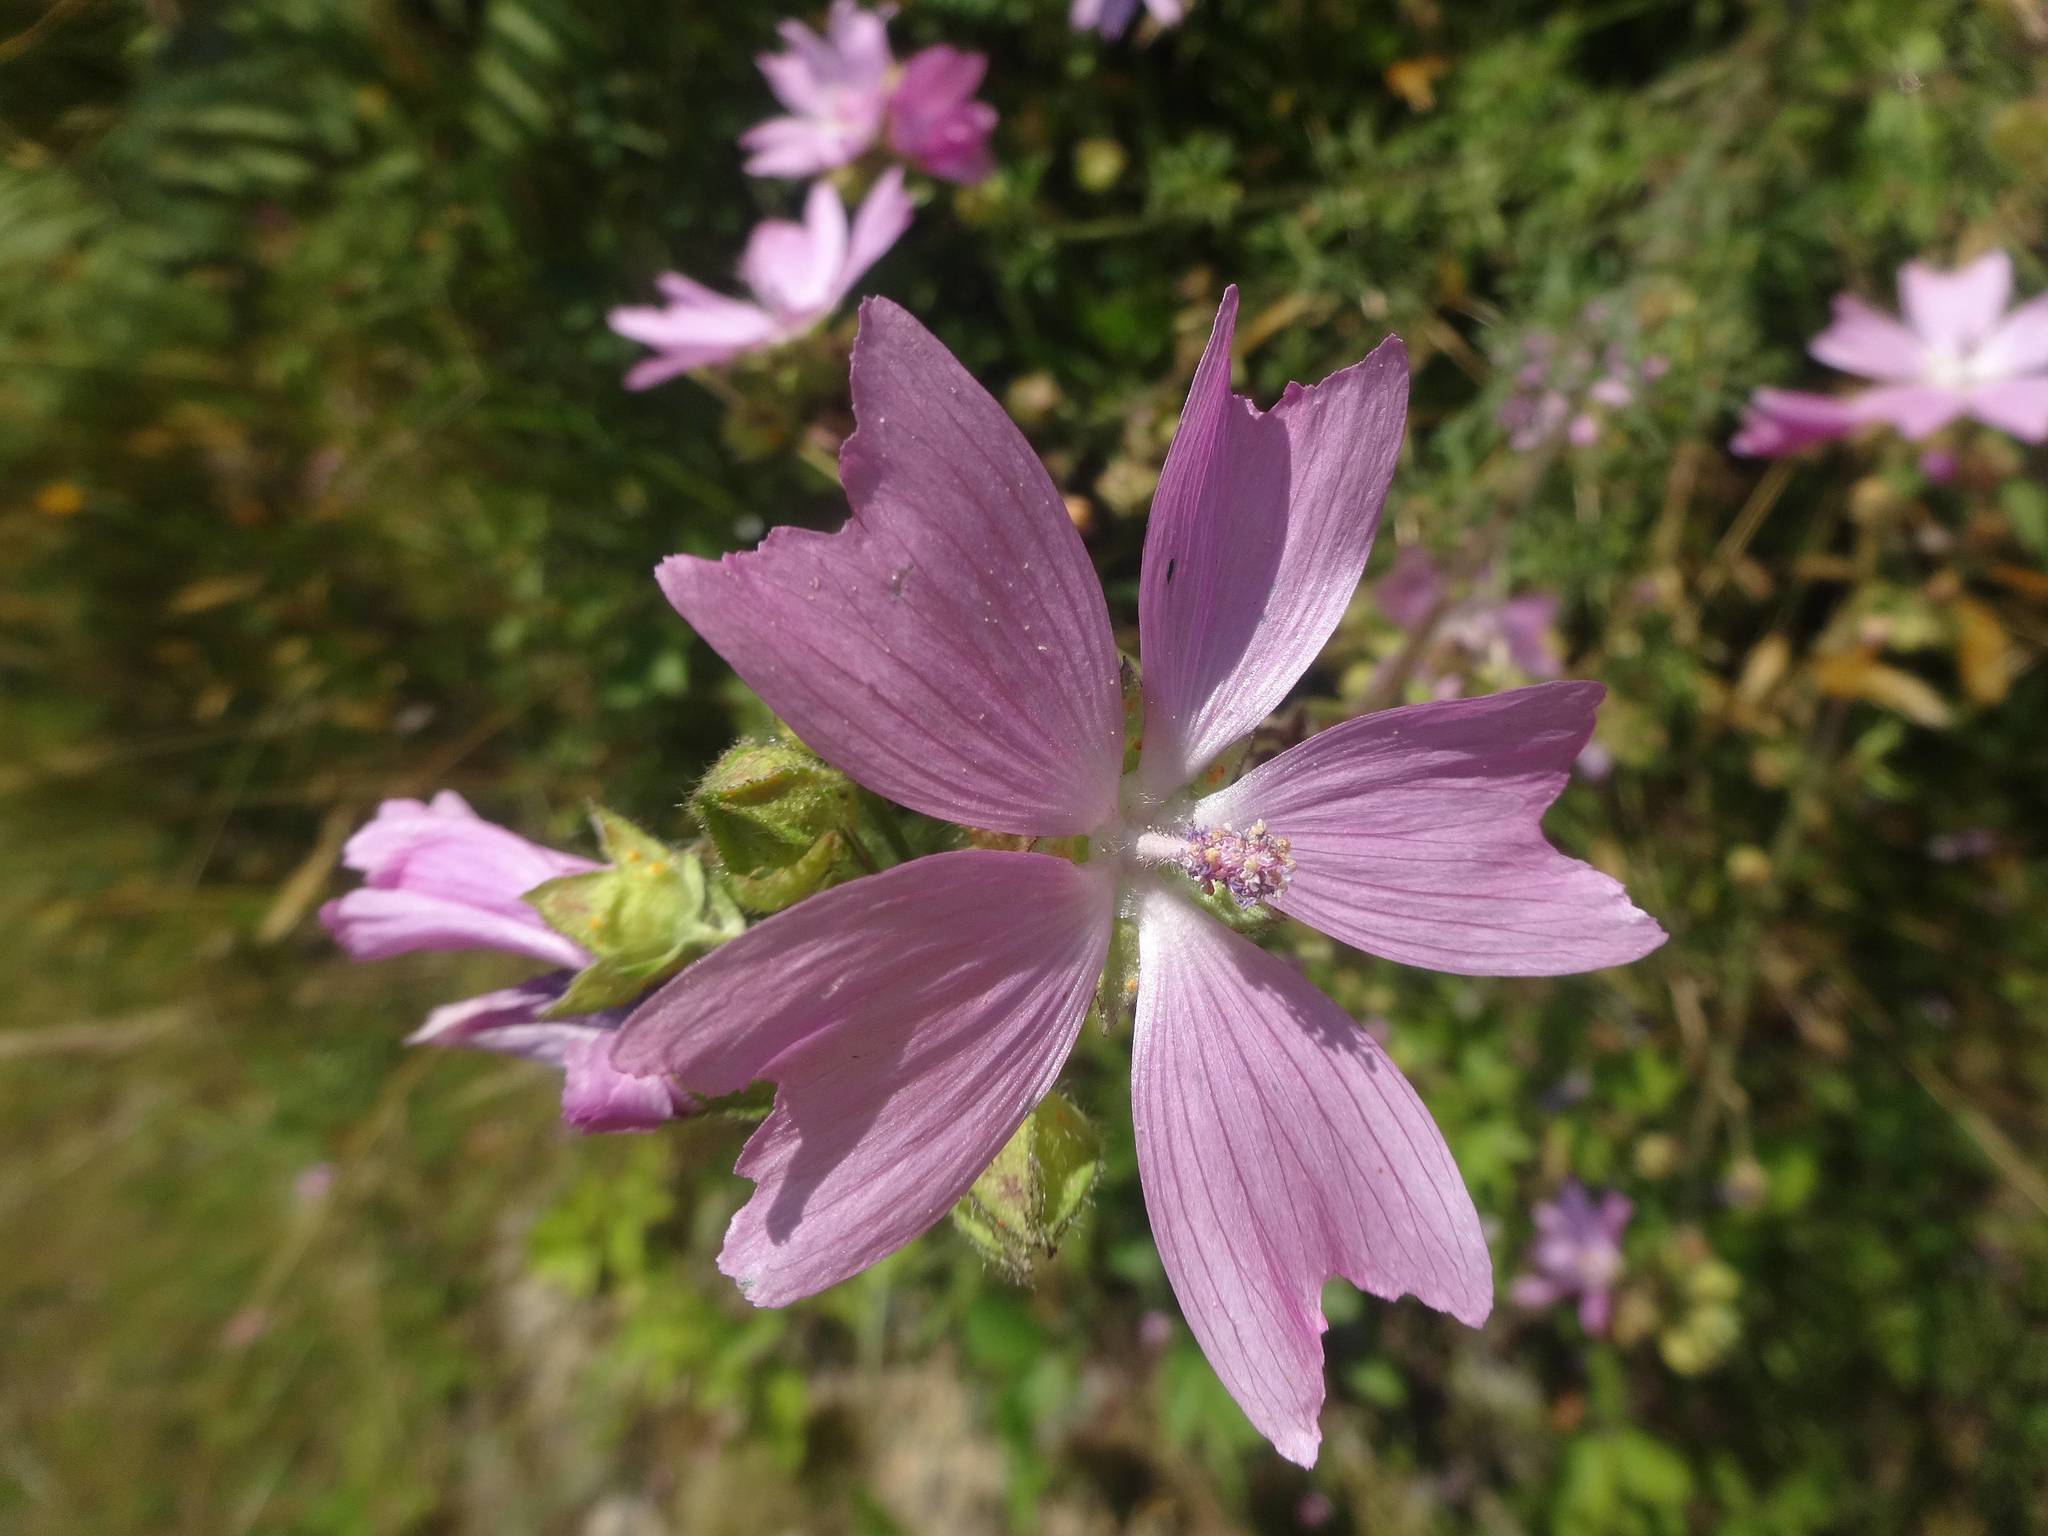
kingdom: Plantae
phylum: Tracheophyta
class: Magnoliopsida
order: Malvales
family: Malvaceae
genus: Malva
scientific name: Malva moschata
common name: Musk mallow
